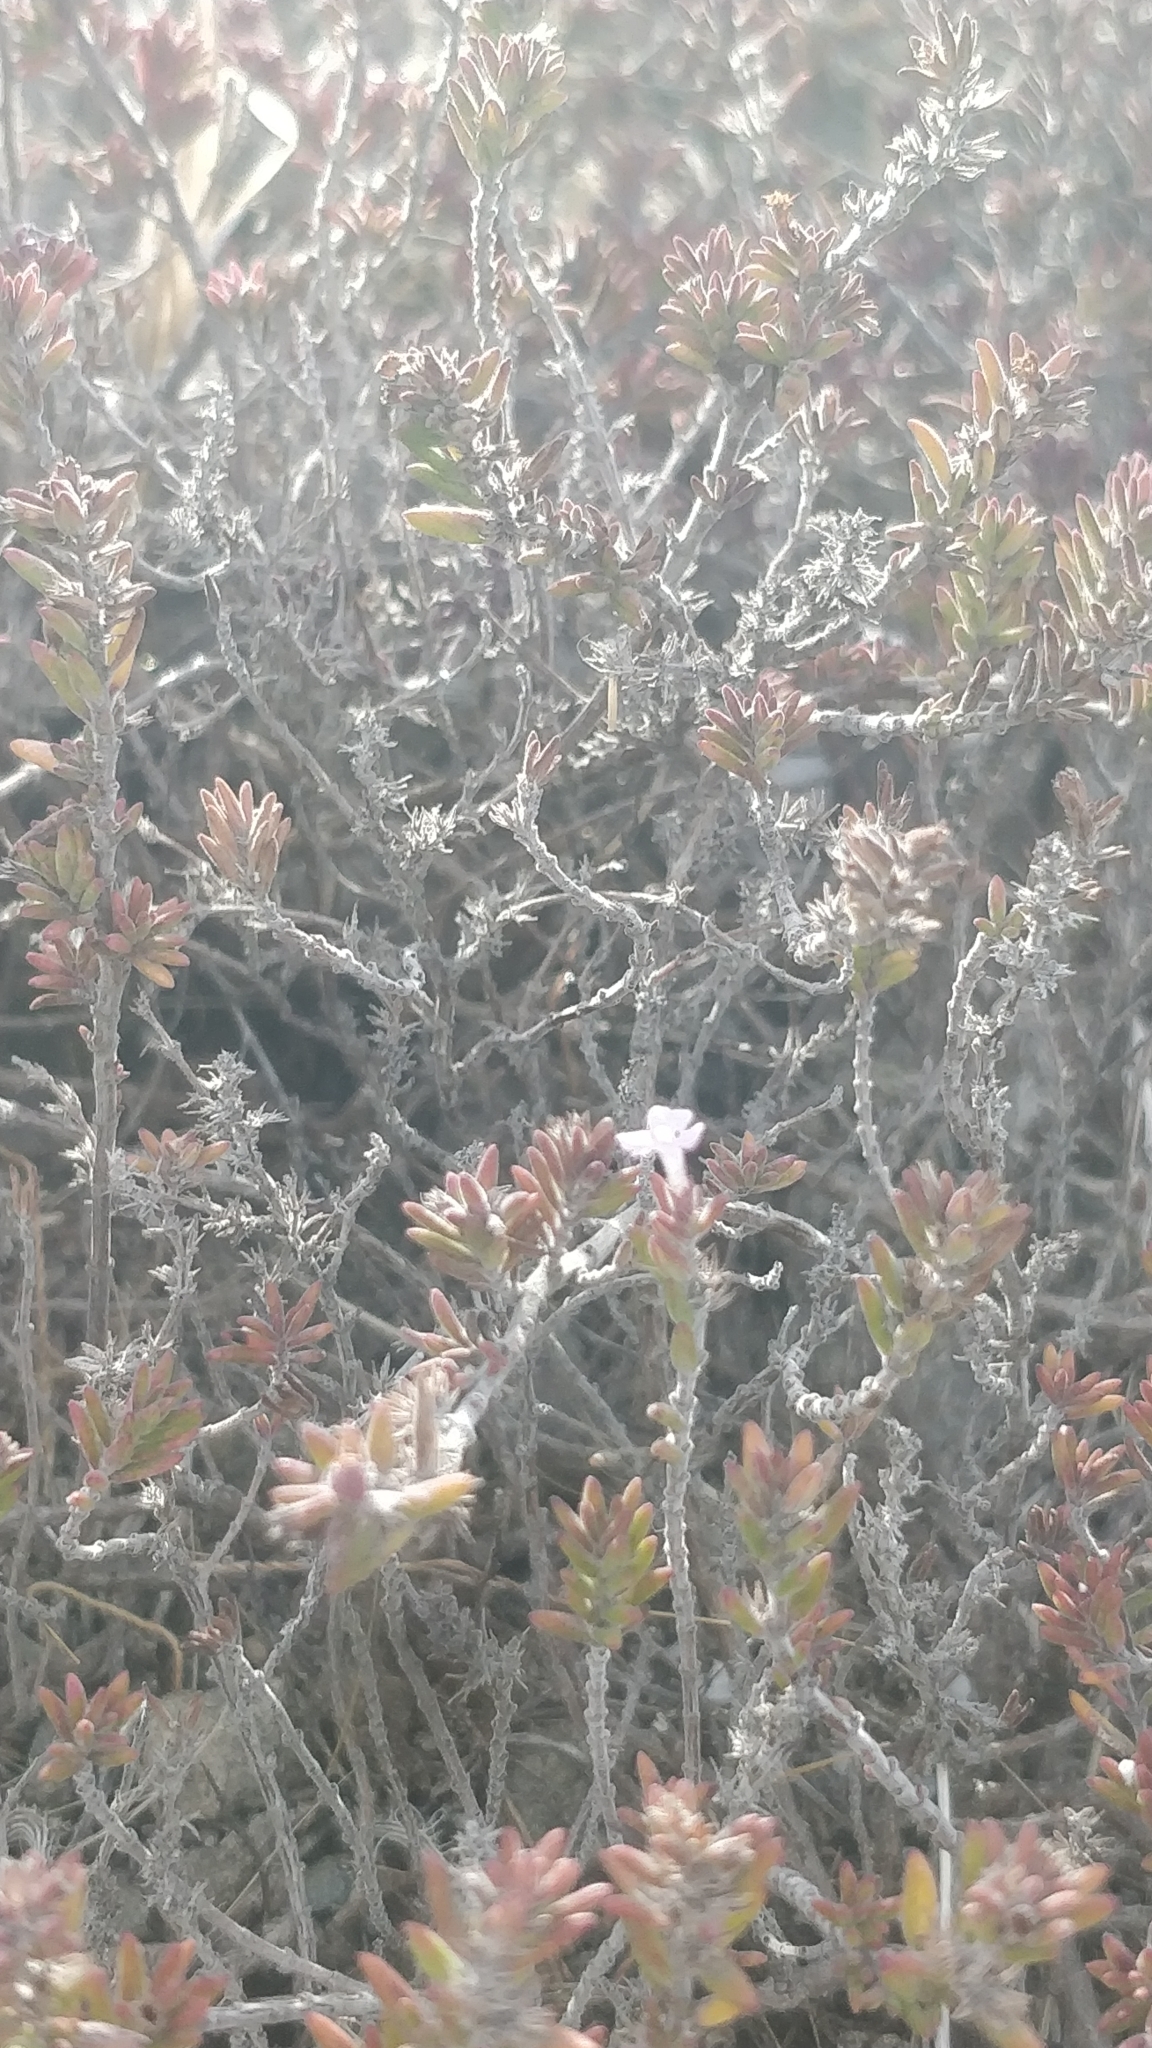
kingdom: Plantae
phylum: Tracheophyta
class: Magnoliopsida
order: Lamiales
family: Lamiaceae
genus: Micromeria
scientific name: Micromeria maderensis
